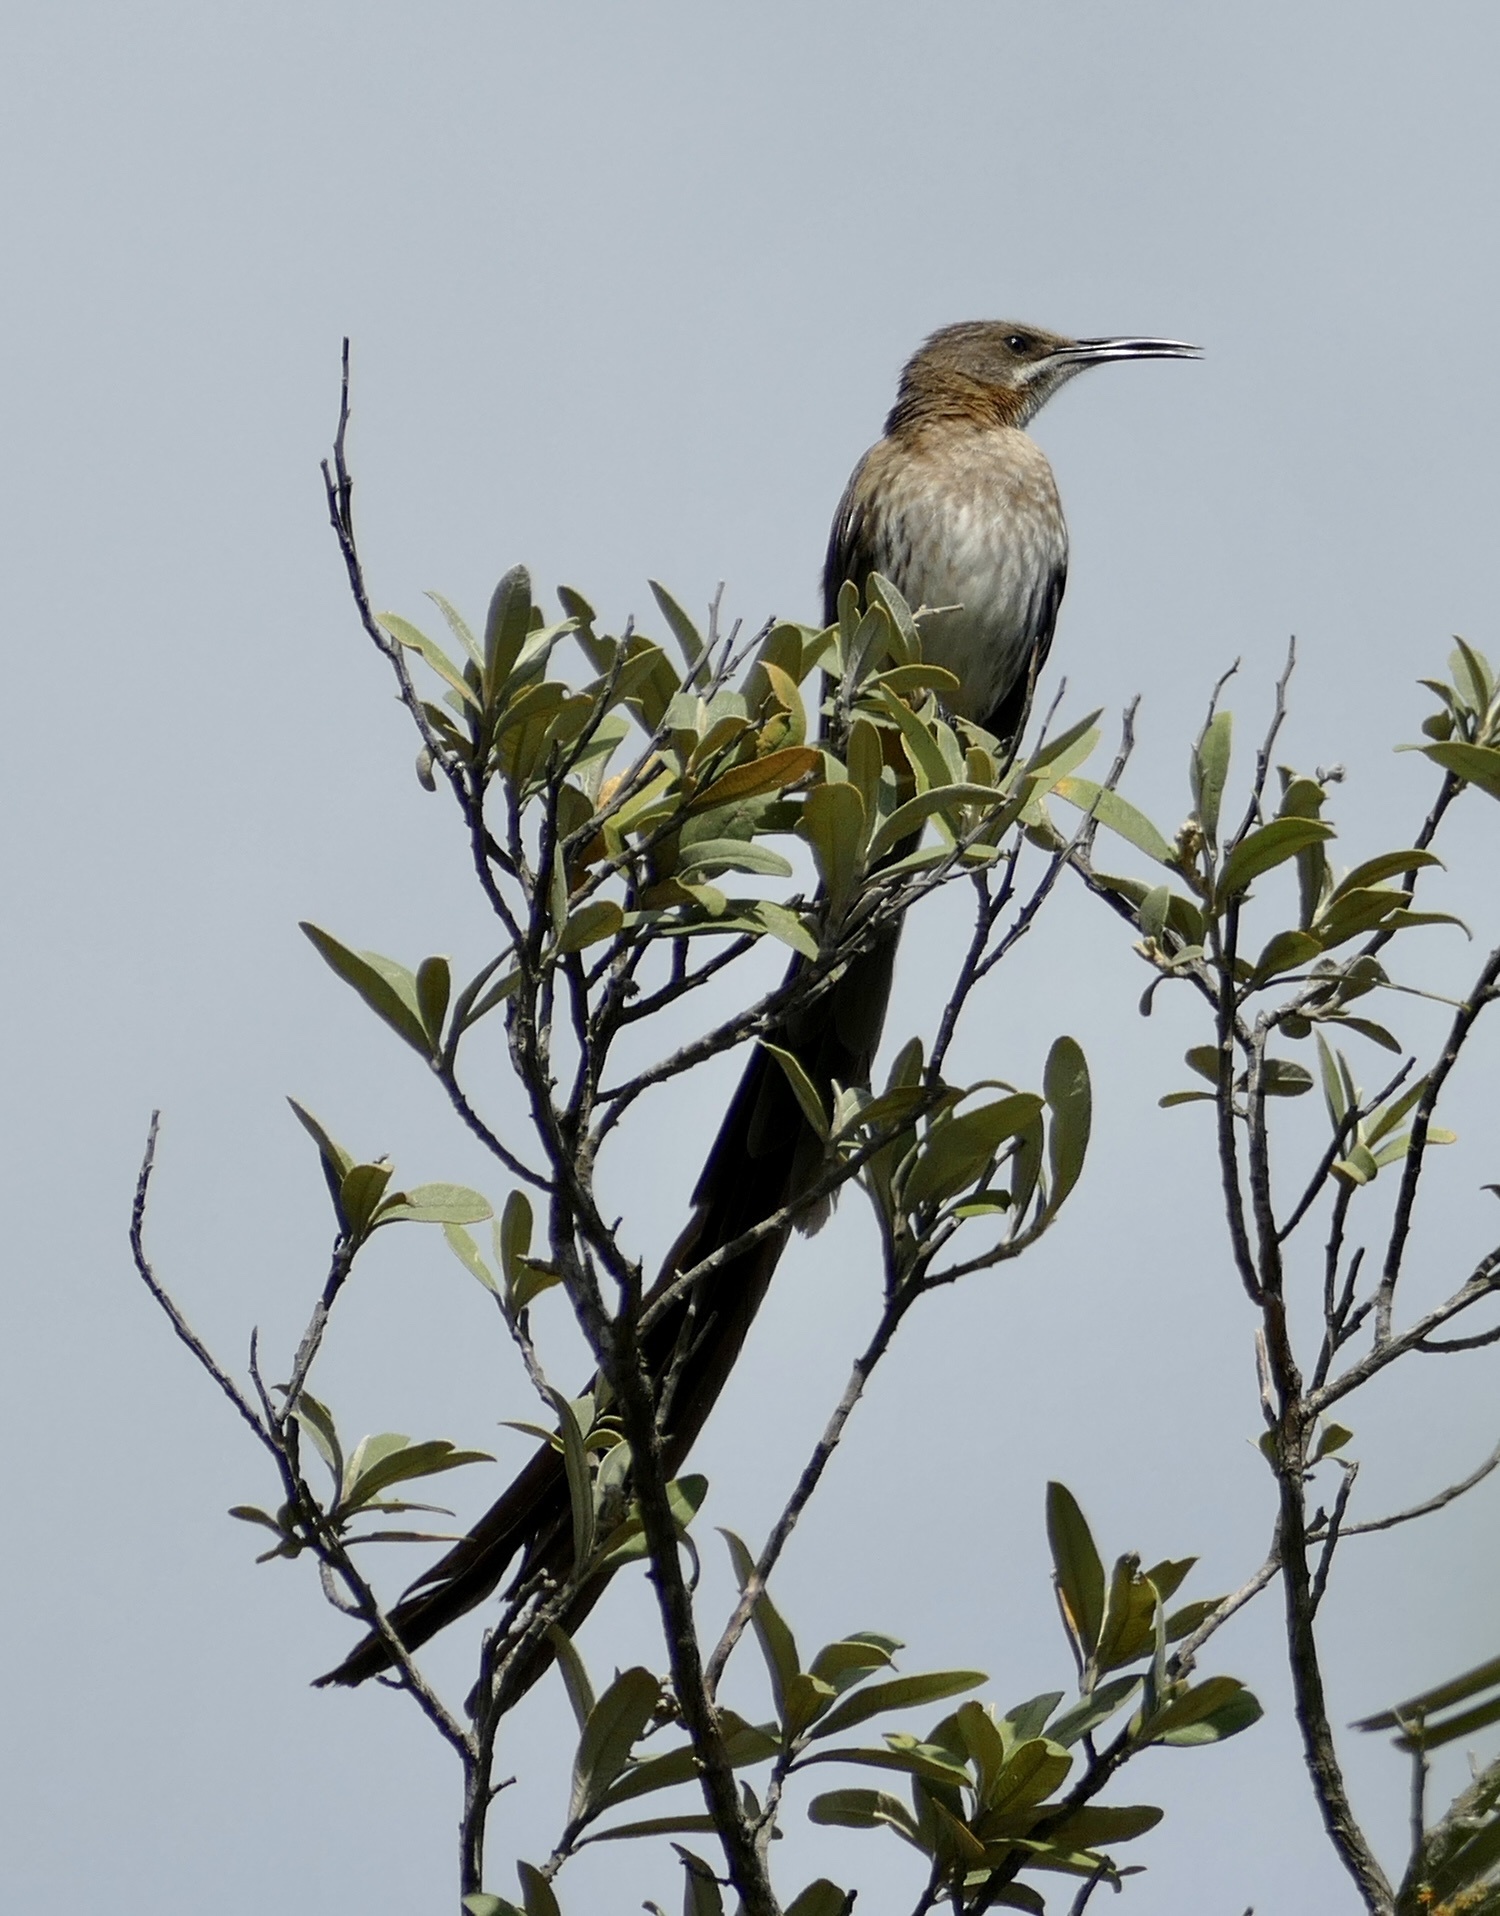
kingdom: Animalia
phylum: Chordata
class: Aves
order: Passeriformes
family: Promeropidae
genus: Promerops
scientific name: Promerops cafer
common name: Cape sugarbird
